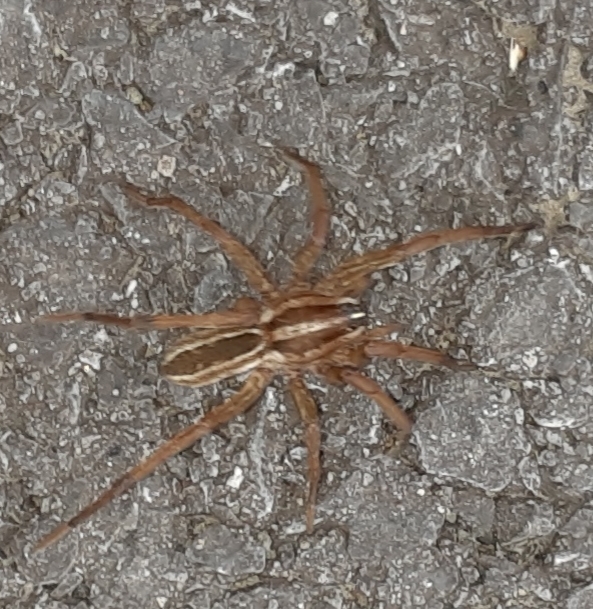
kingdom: Animalia
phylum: Arthropoda
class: Arachnida
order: Araneae
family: Lycosidae
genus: Rabidosa
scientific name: Rabidosa rabida
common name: Rabid wolf spider
